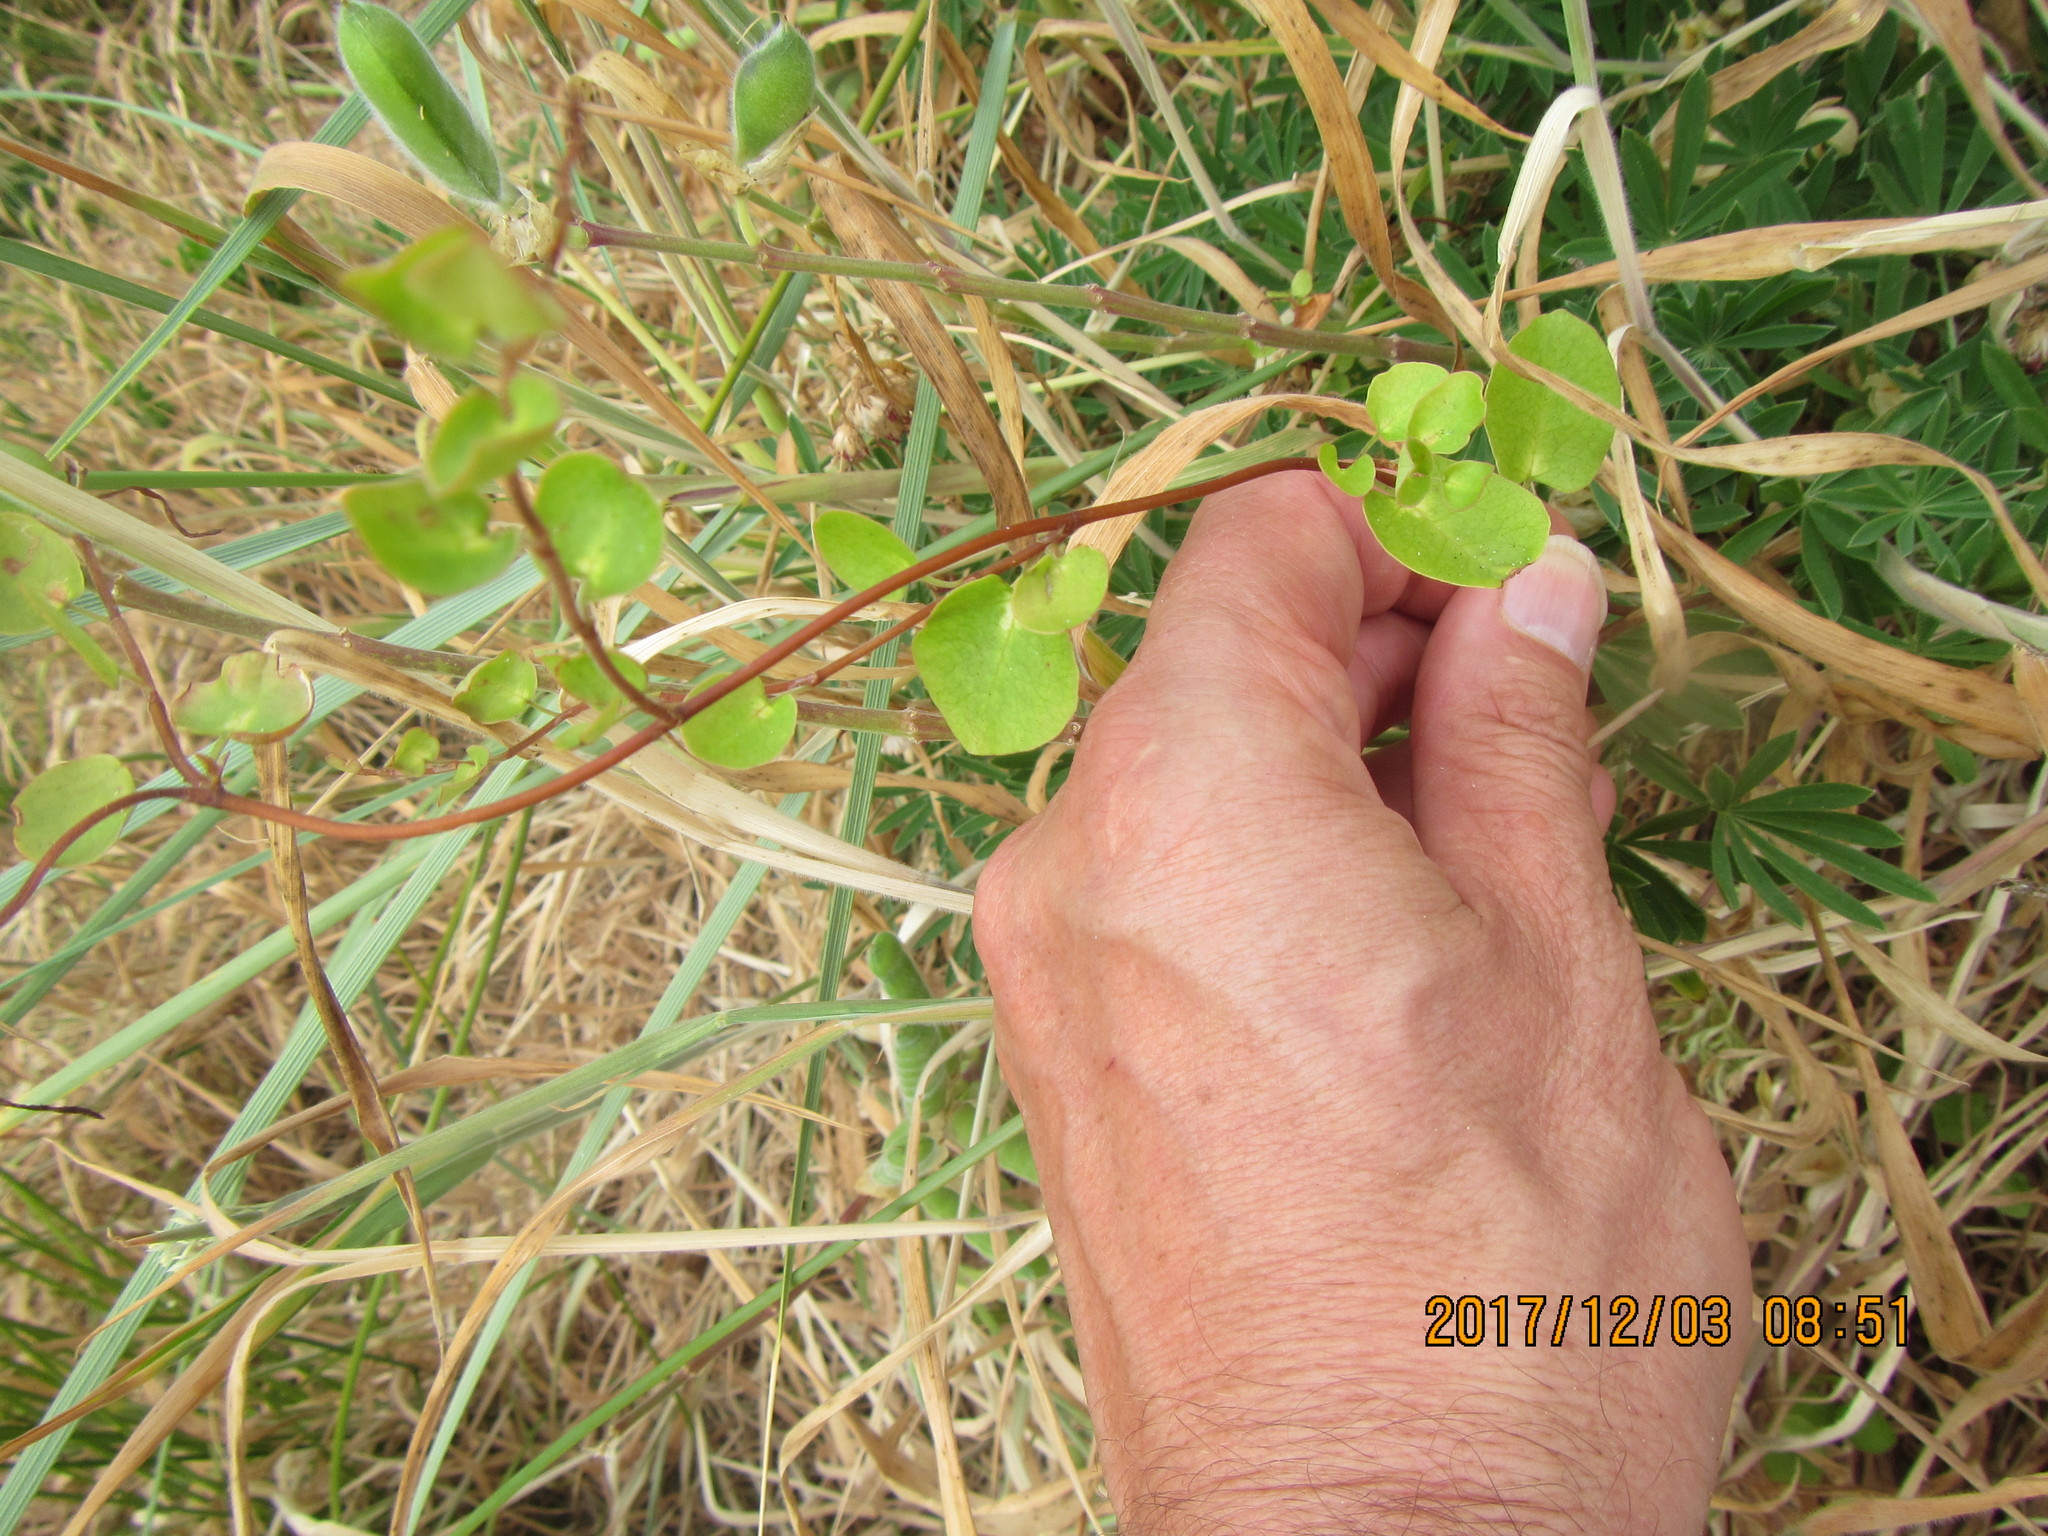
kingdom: Plantae
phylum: Tracheophyta
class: Magnoliopsida
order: Caryophyllales
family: Polygonaceae
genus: Muehlenbeckia
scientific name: Muehlenbeckia complexa
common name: Wireplant
